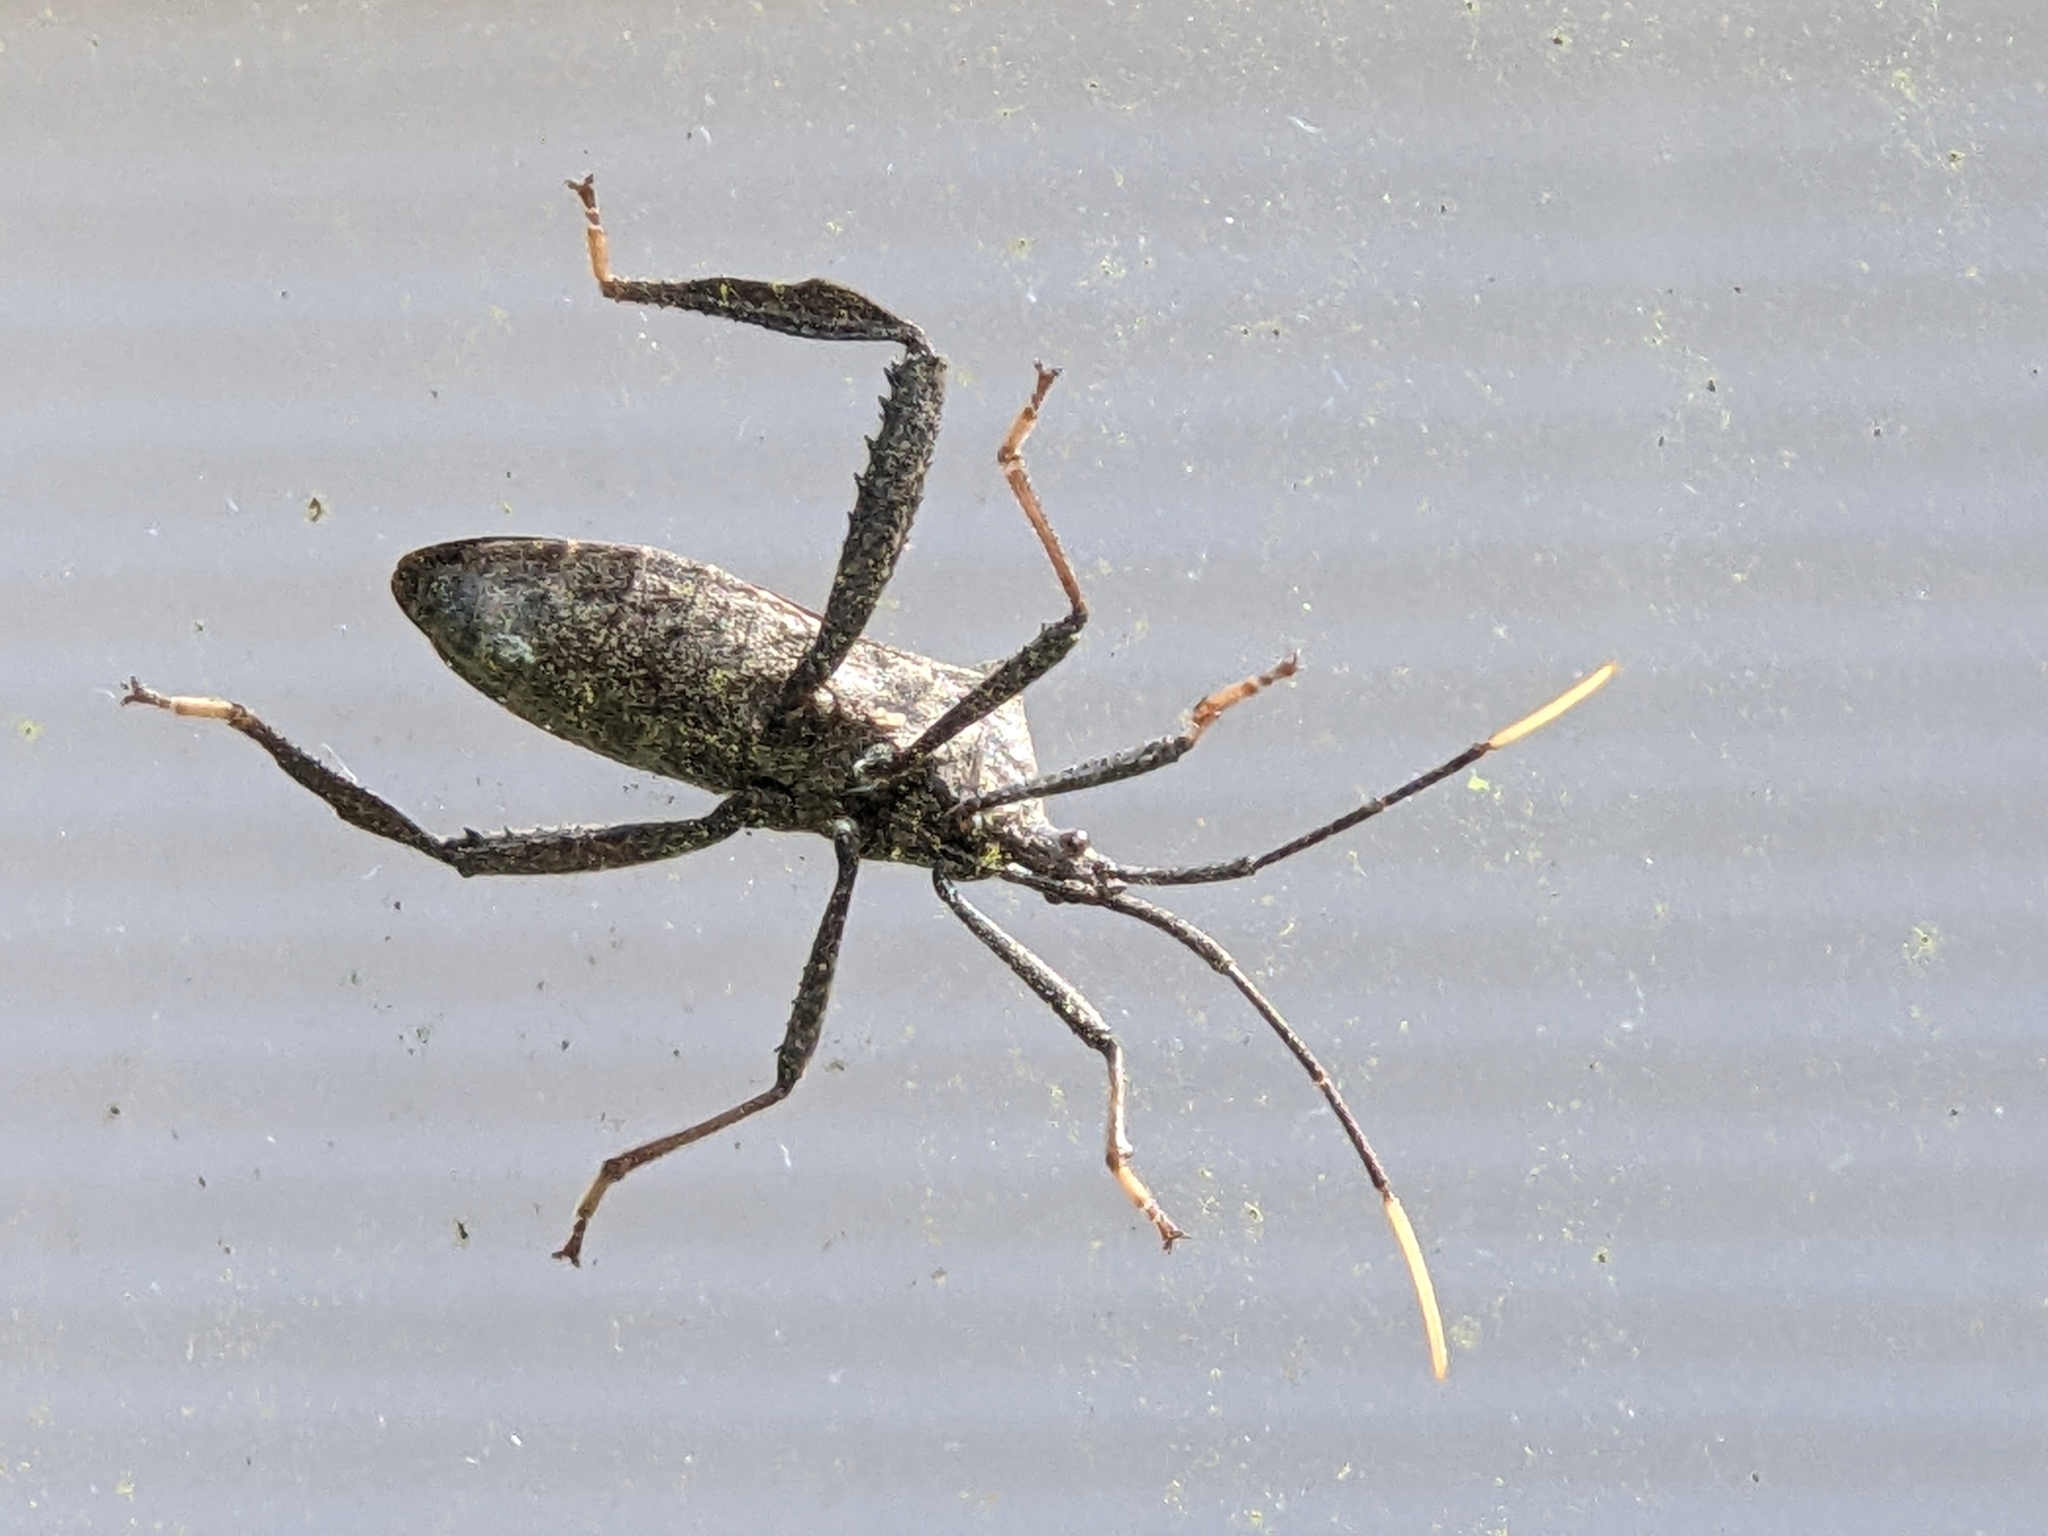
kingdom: Animalia
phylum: Arthropoda
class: Insecta
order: Hemiptera
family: Coreidae
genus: Acanthocephala
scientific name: Acanthocephala terminalis
